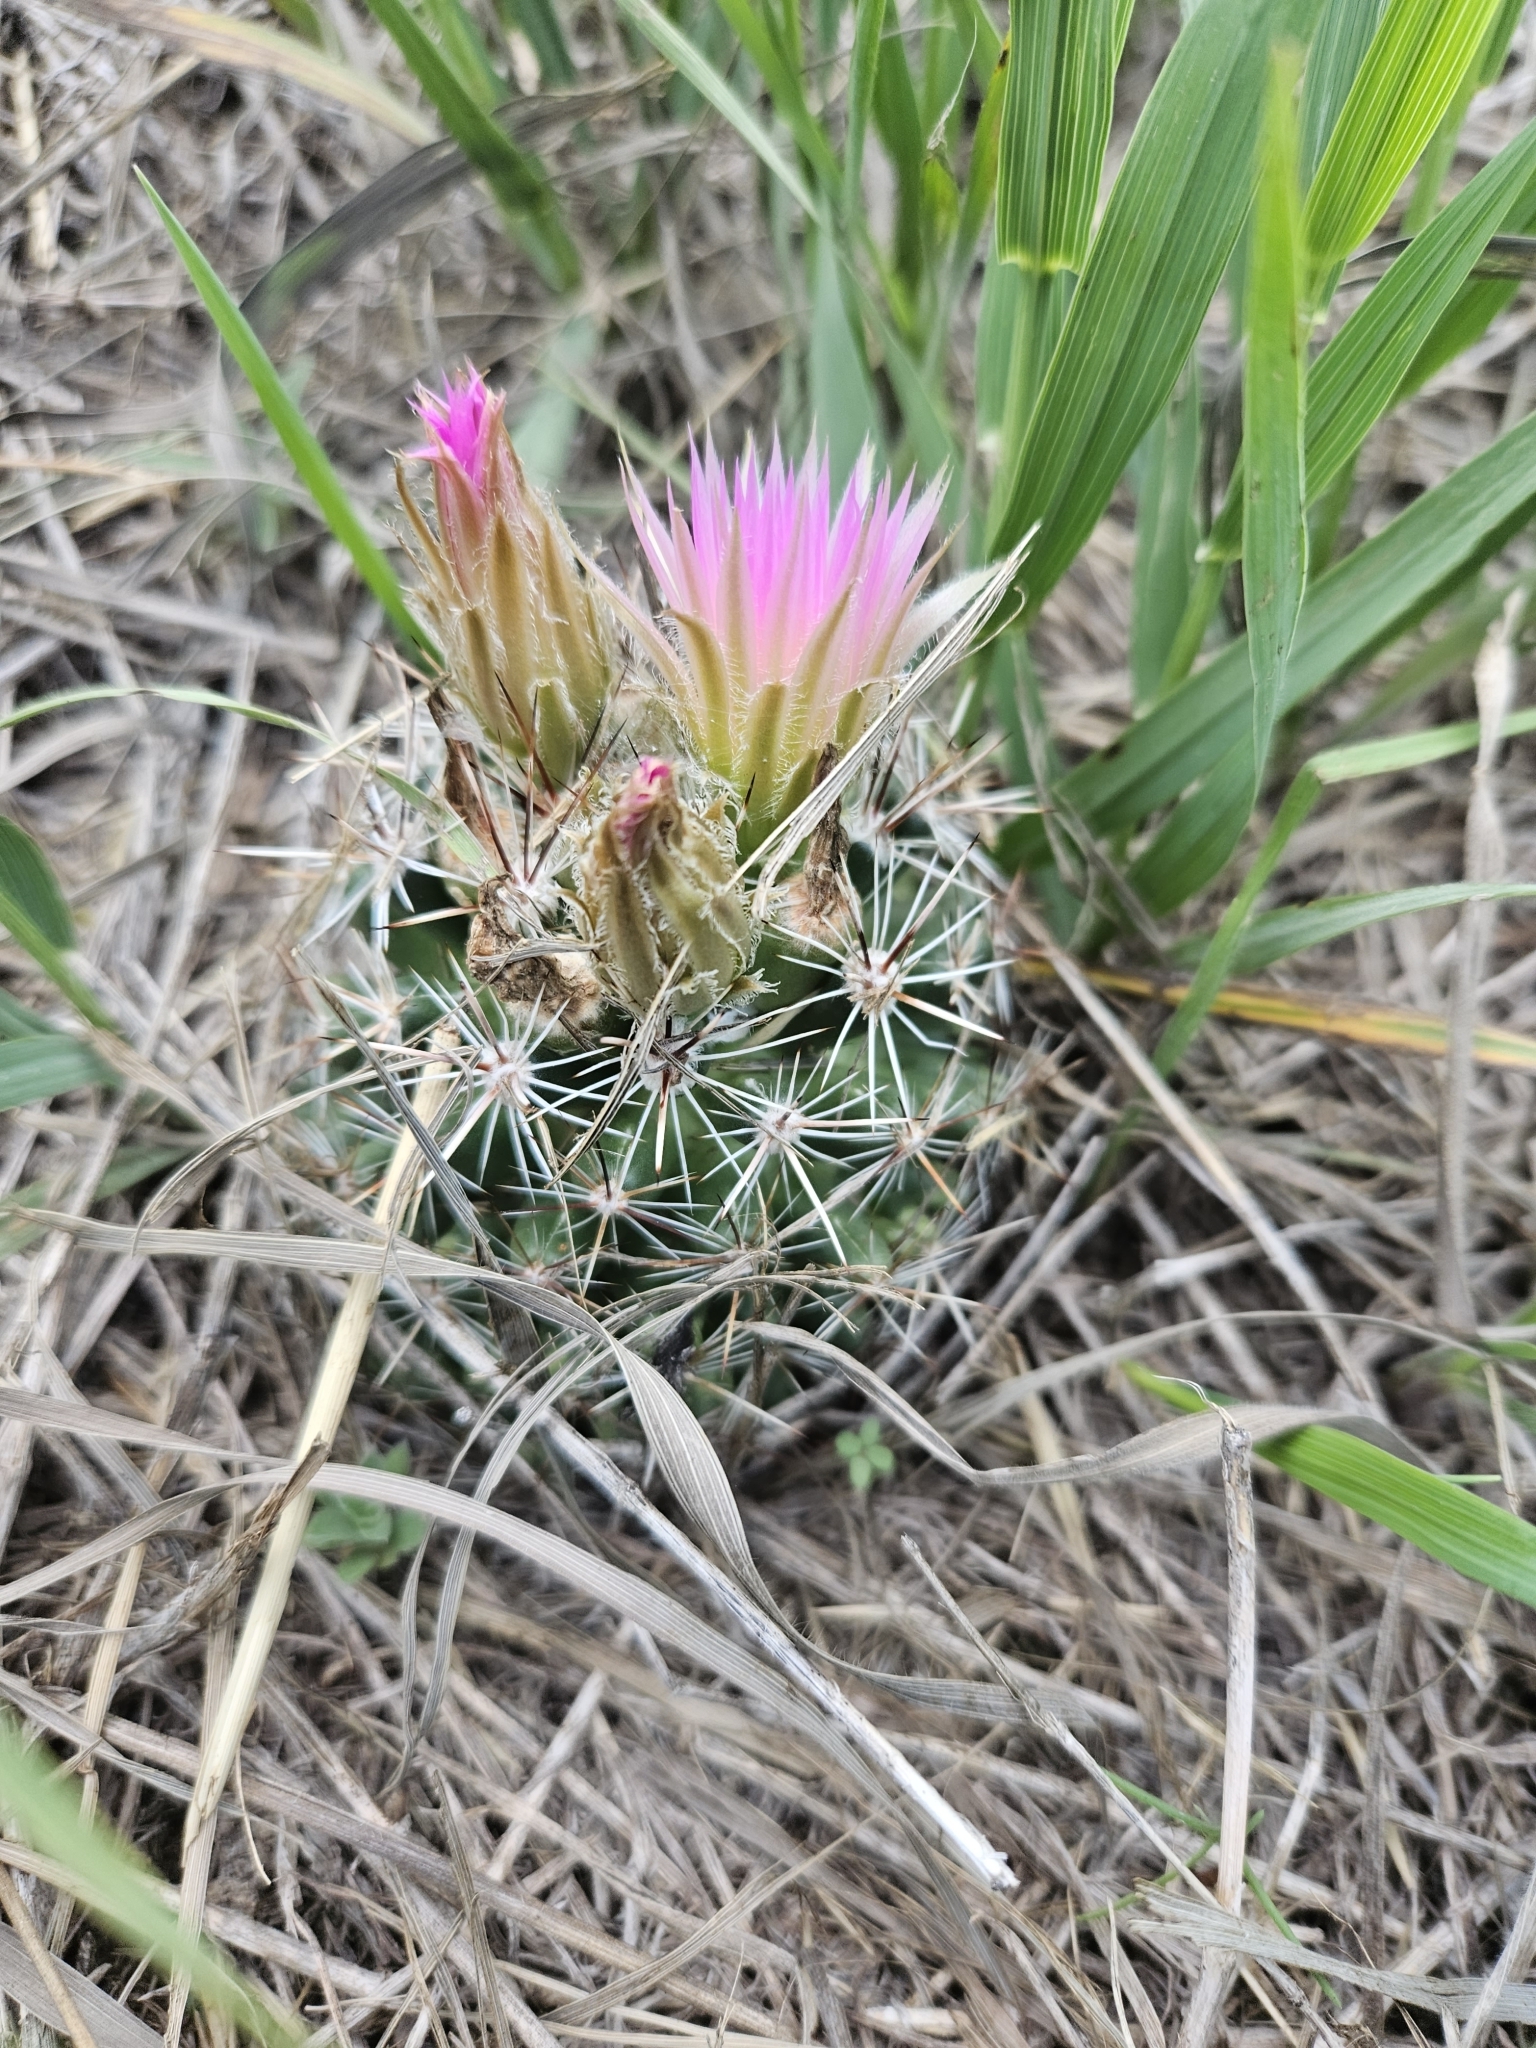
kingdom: Plantae
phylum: Tracheophyta
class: Magnoliopsida
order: Caryophyllales
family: Cactaceae
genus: Pelecyphora
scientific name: Pelecyphora vivipara
